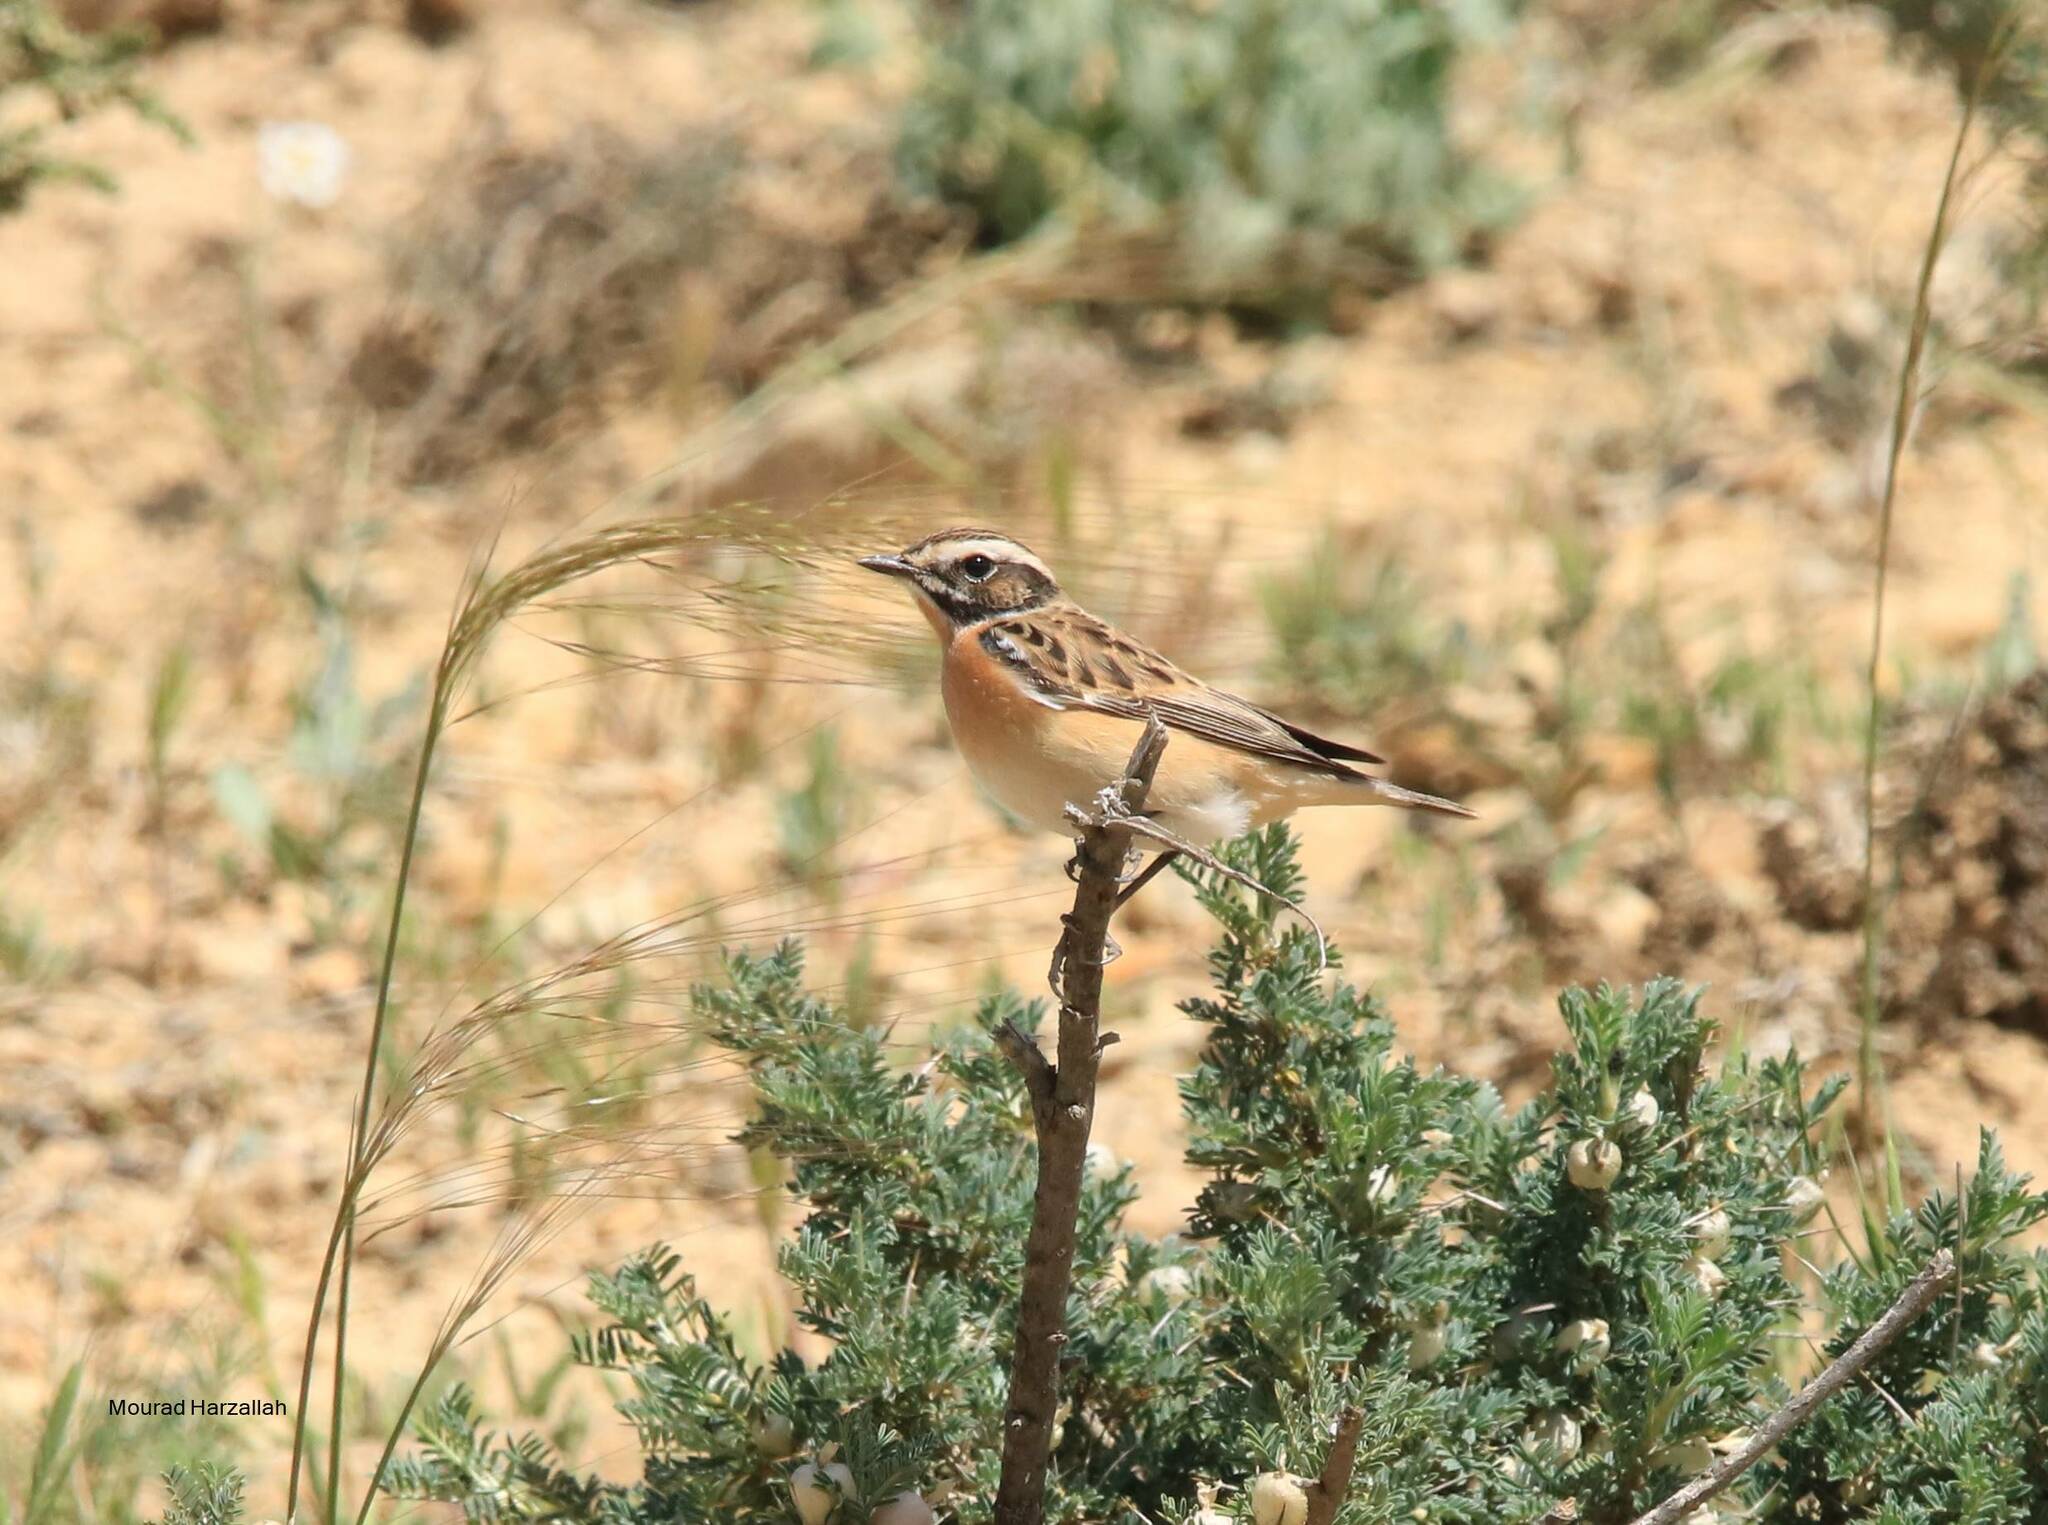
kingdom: Animalia
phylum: Chordata
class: Aves
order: Passeriformes
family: Muscicapidae
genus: Saxicola
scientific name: Saxicola rubetra
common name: Whinchat
